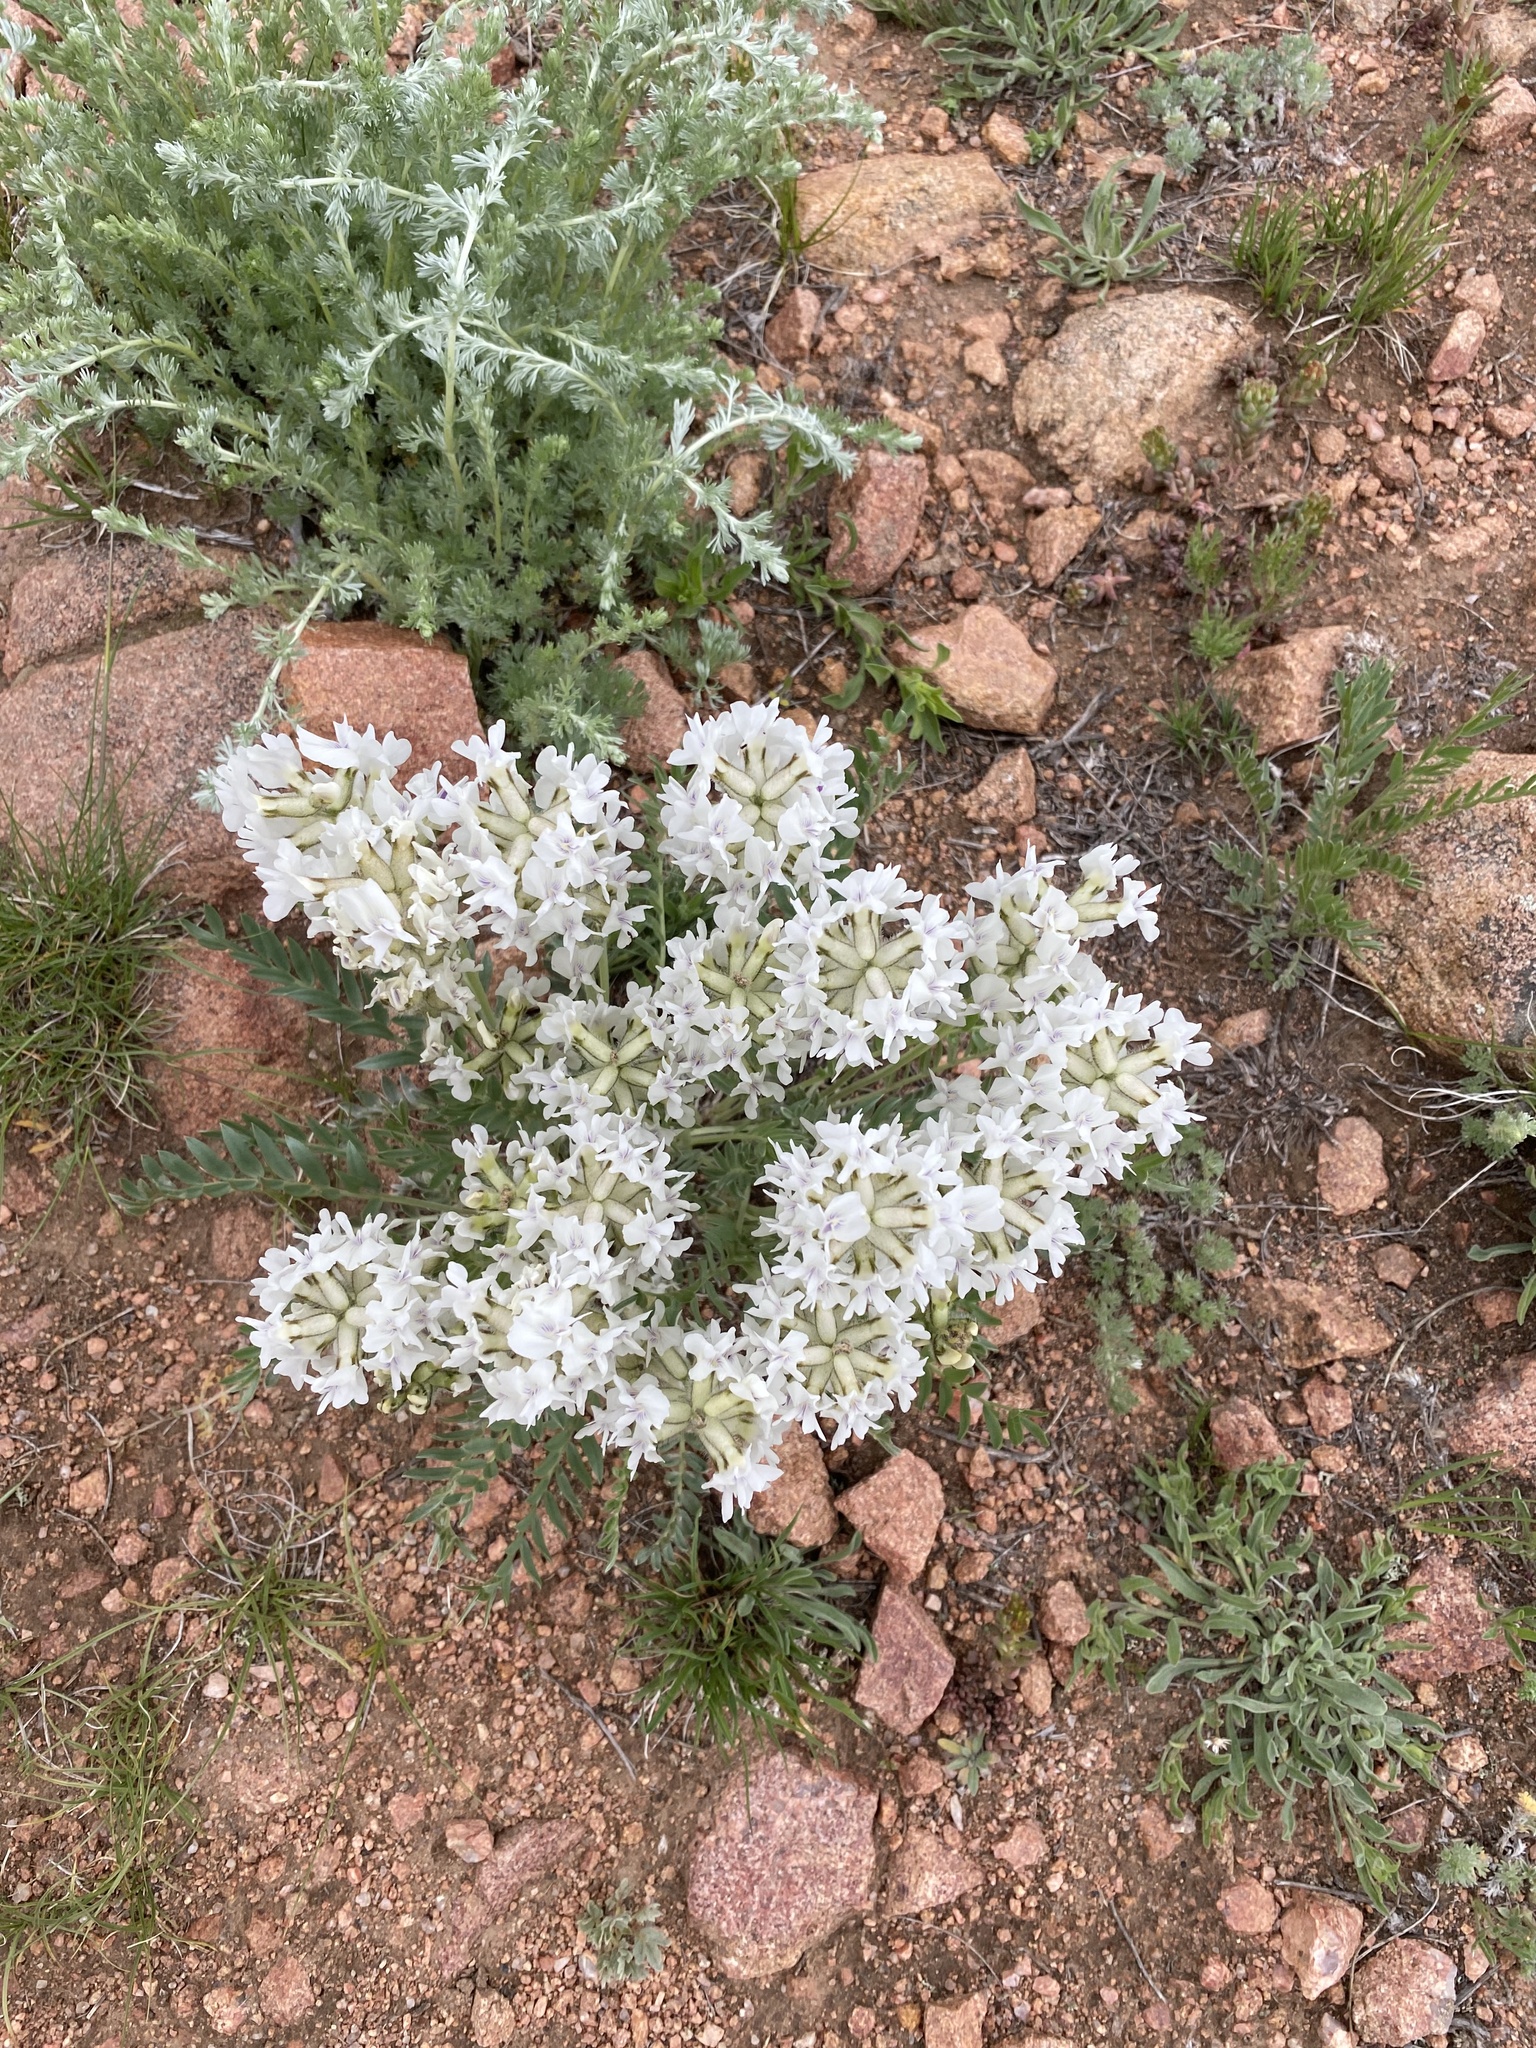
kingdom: Plantae
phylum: Tracheophyta
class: Magnoliopsida
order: Fabales
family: Fabaceae
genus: Oxytropis
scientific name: Oxytropis sericea
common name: Silky locoweed
